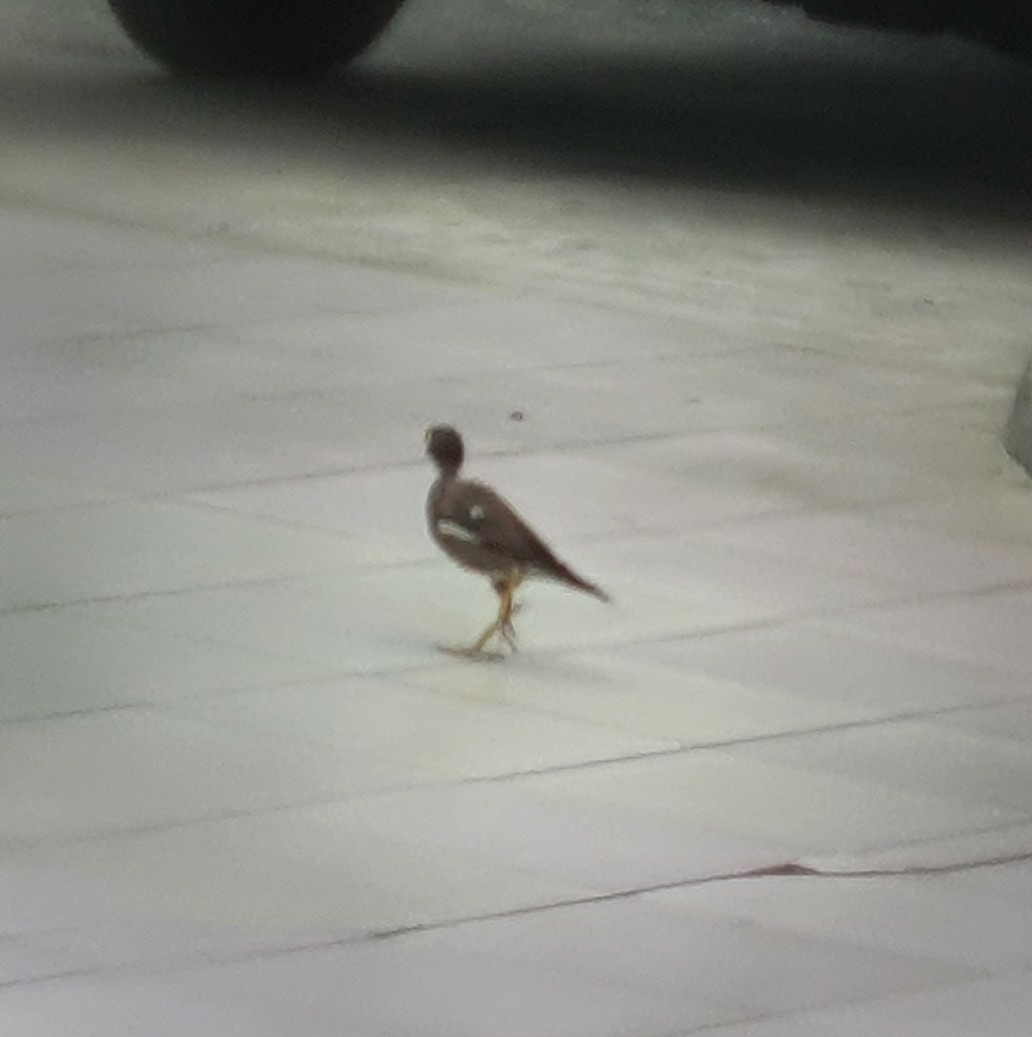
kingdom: Animalia
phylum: Chordata
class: Aves
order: Passeriformes
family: Sturnidae
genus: Acridotheres
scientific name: Acridotheres tristis
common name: Common myna
